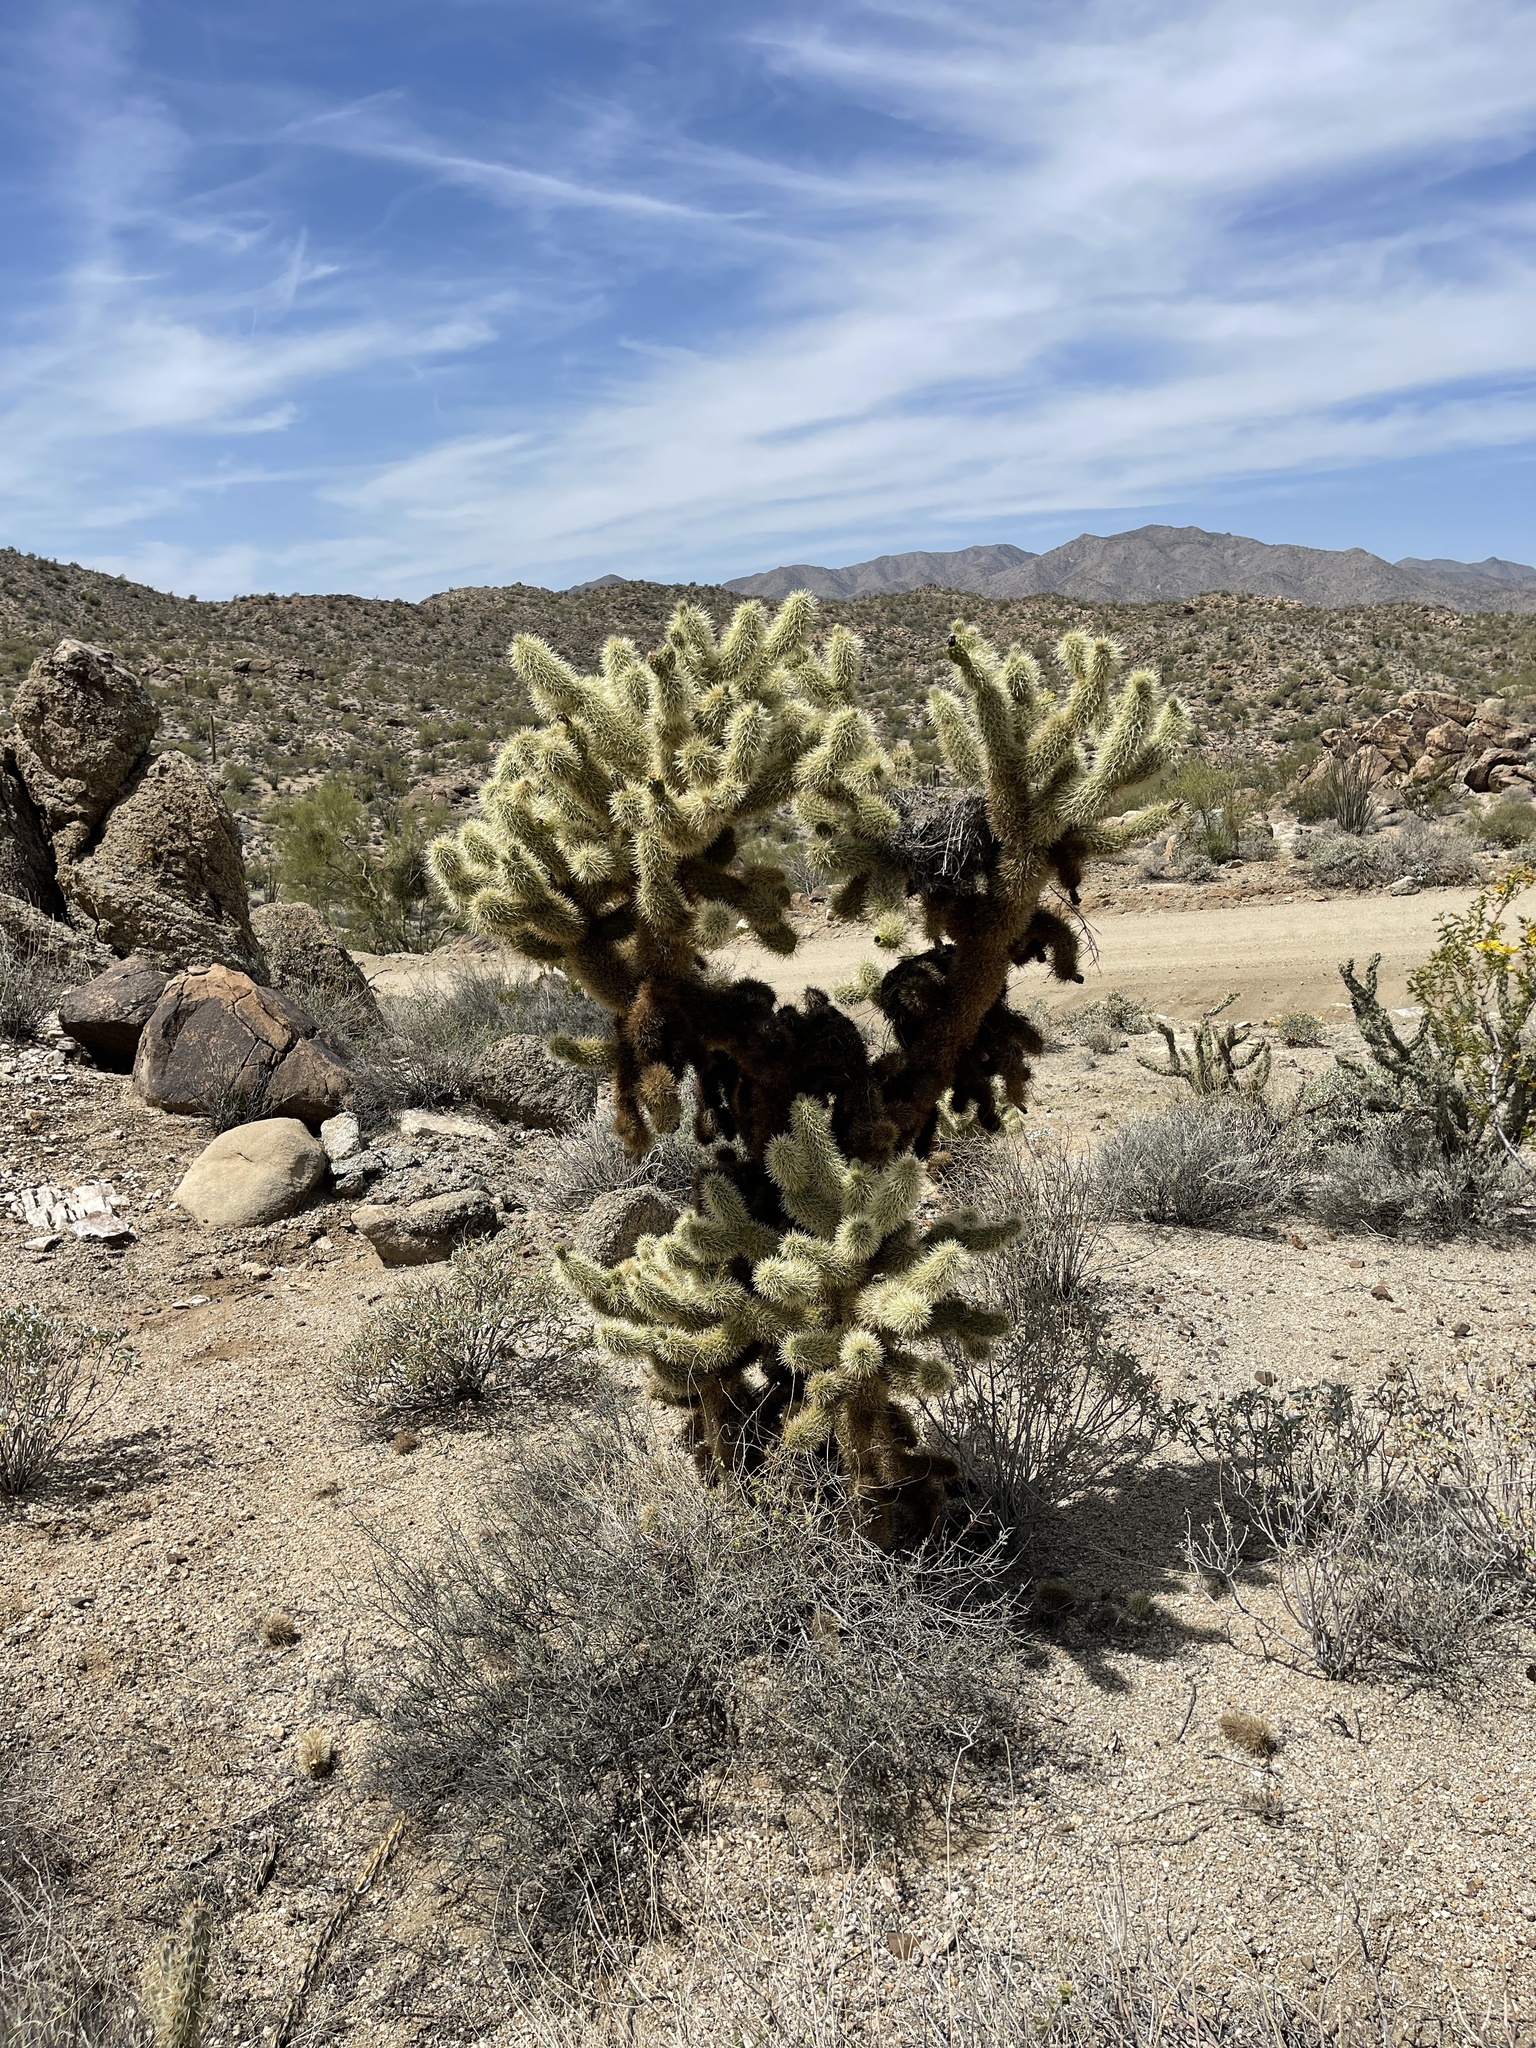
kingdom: Plantae
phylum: Tracheophyta
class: Magnoliopsida
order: Caryophyllales
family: Cactaceae
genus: Cylindropuntia
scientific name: Cylindropuntia fosbergii
